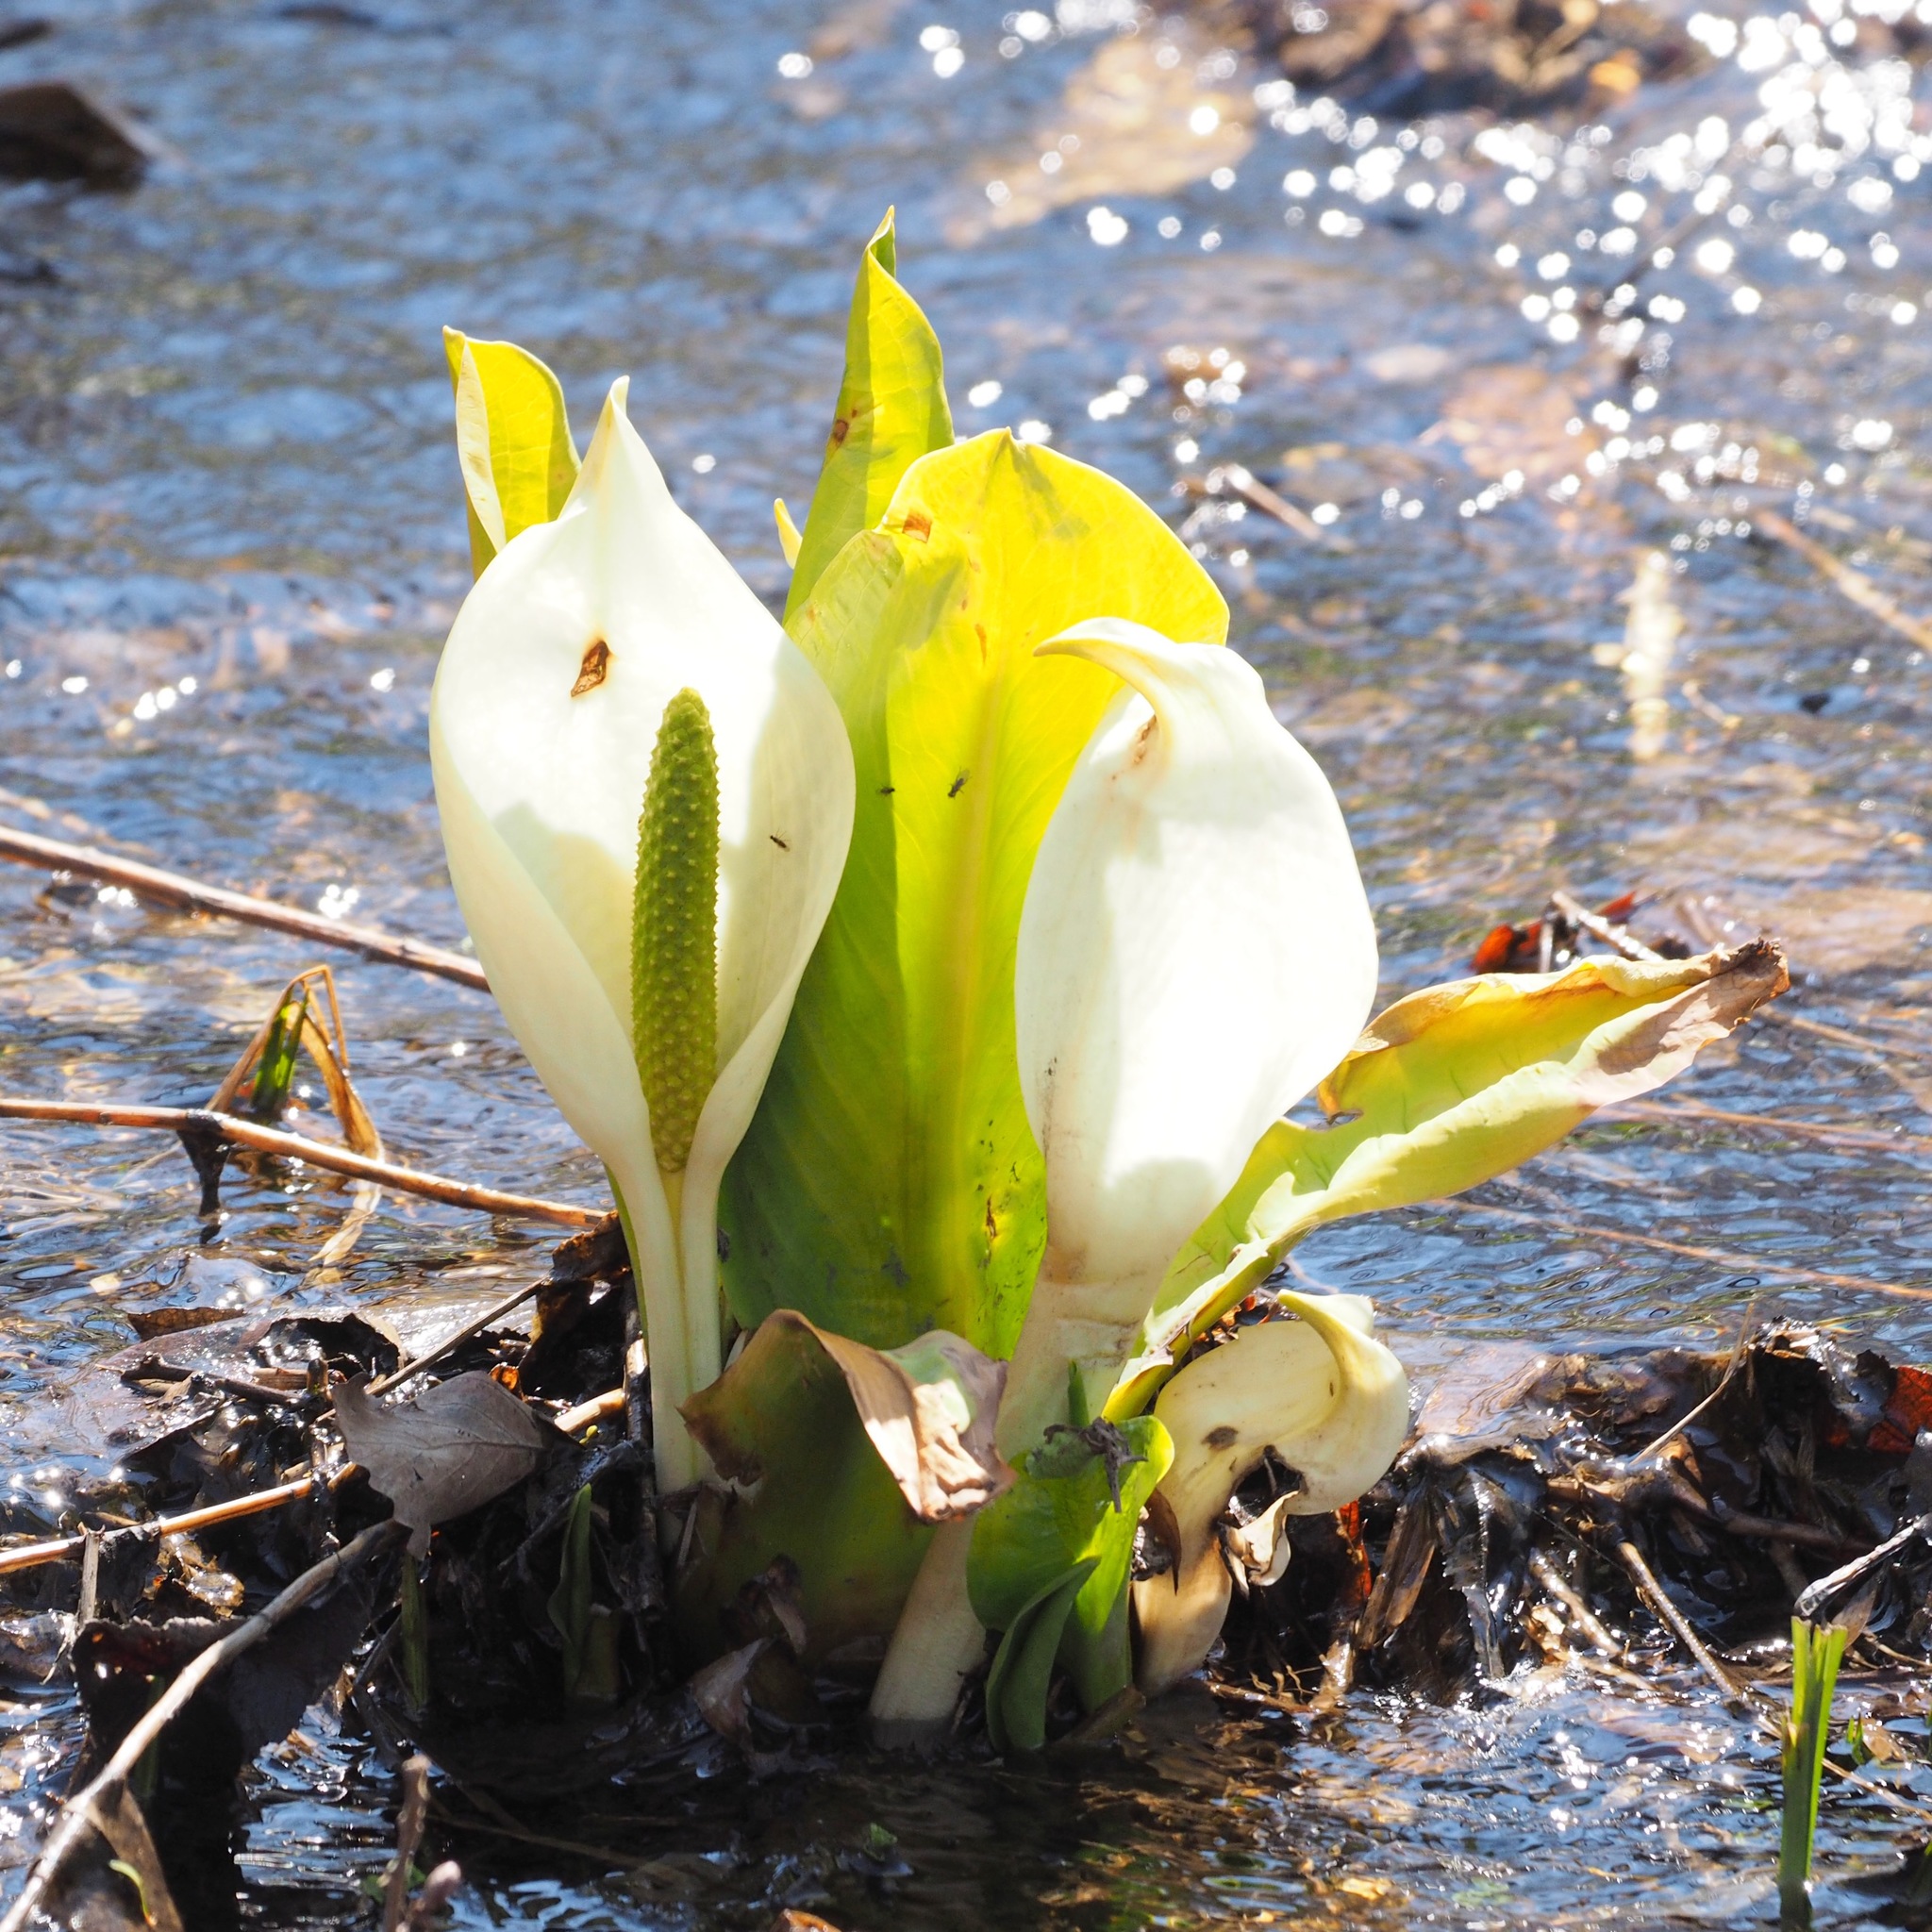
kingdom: Plantae
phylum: Tracheophyta
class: Liliopsida
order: Alismatales
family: Araceae
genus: Lysichiton
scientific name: Lysichiton camtschatcensis
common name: Asian skunk-cabbage
